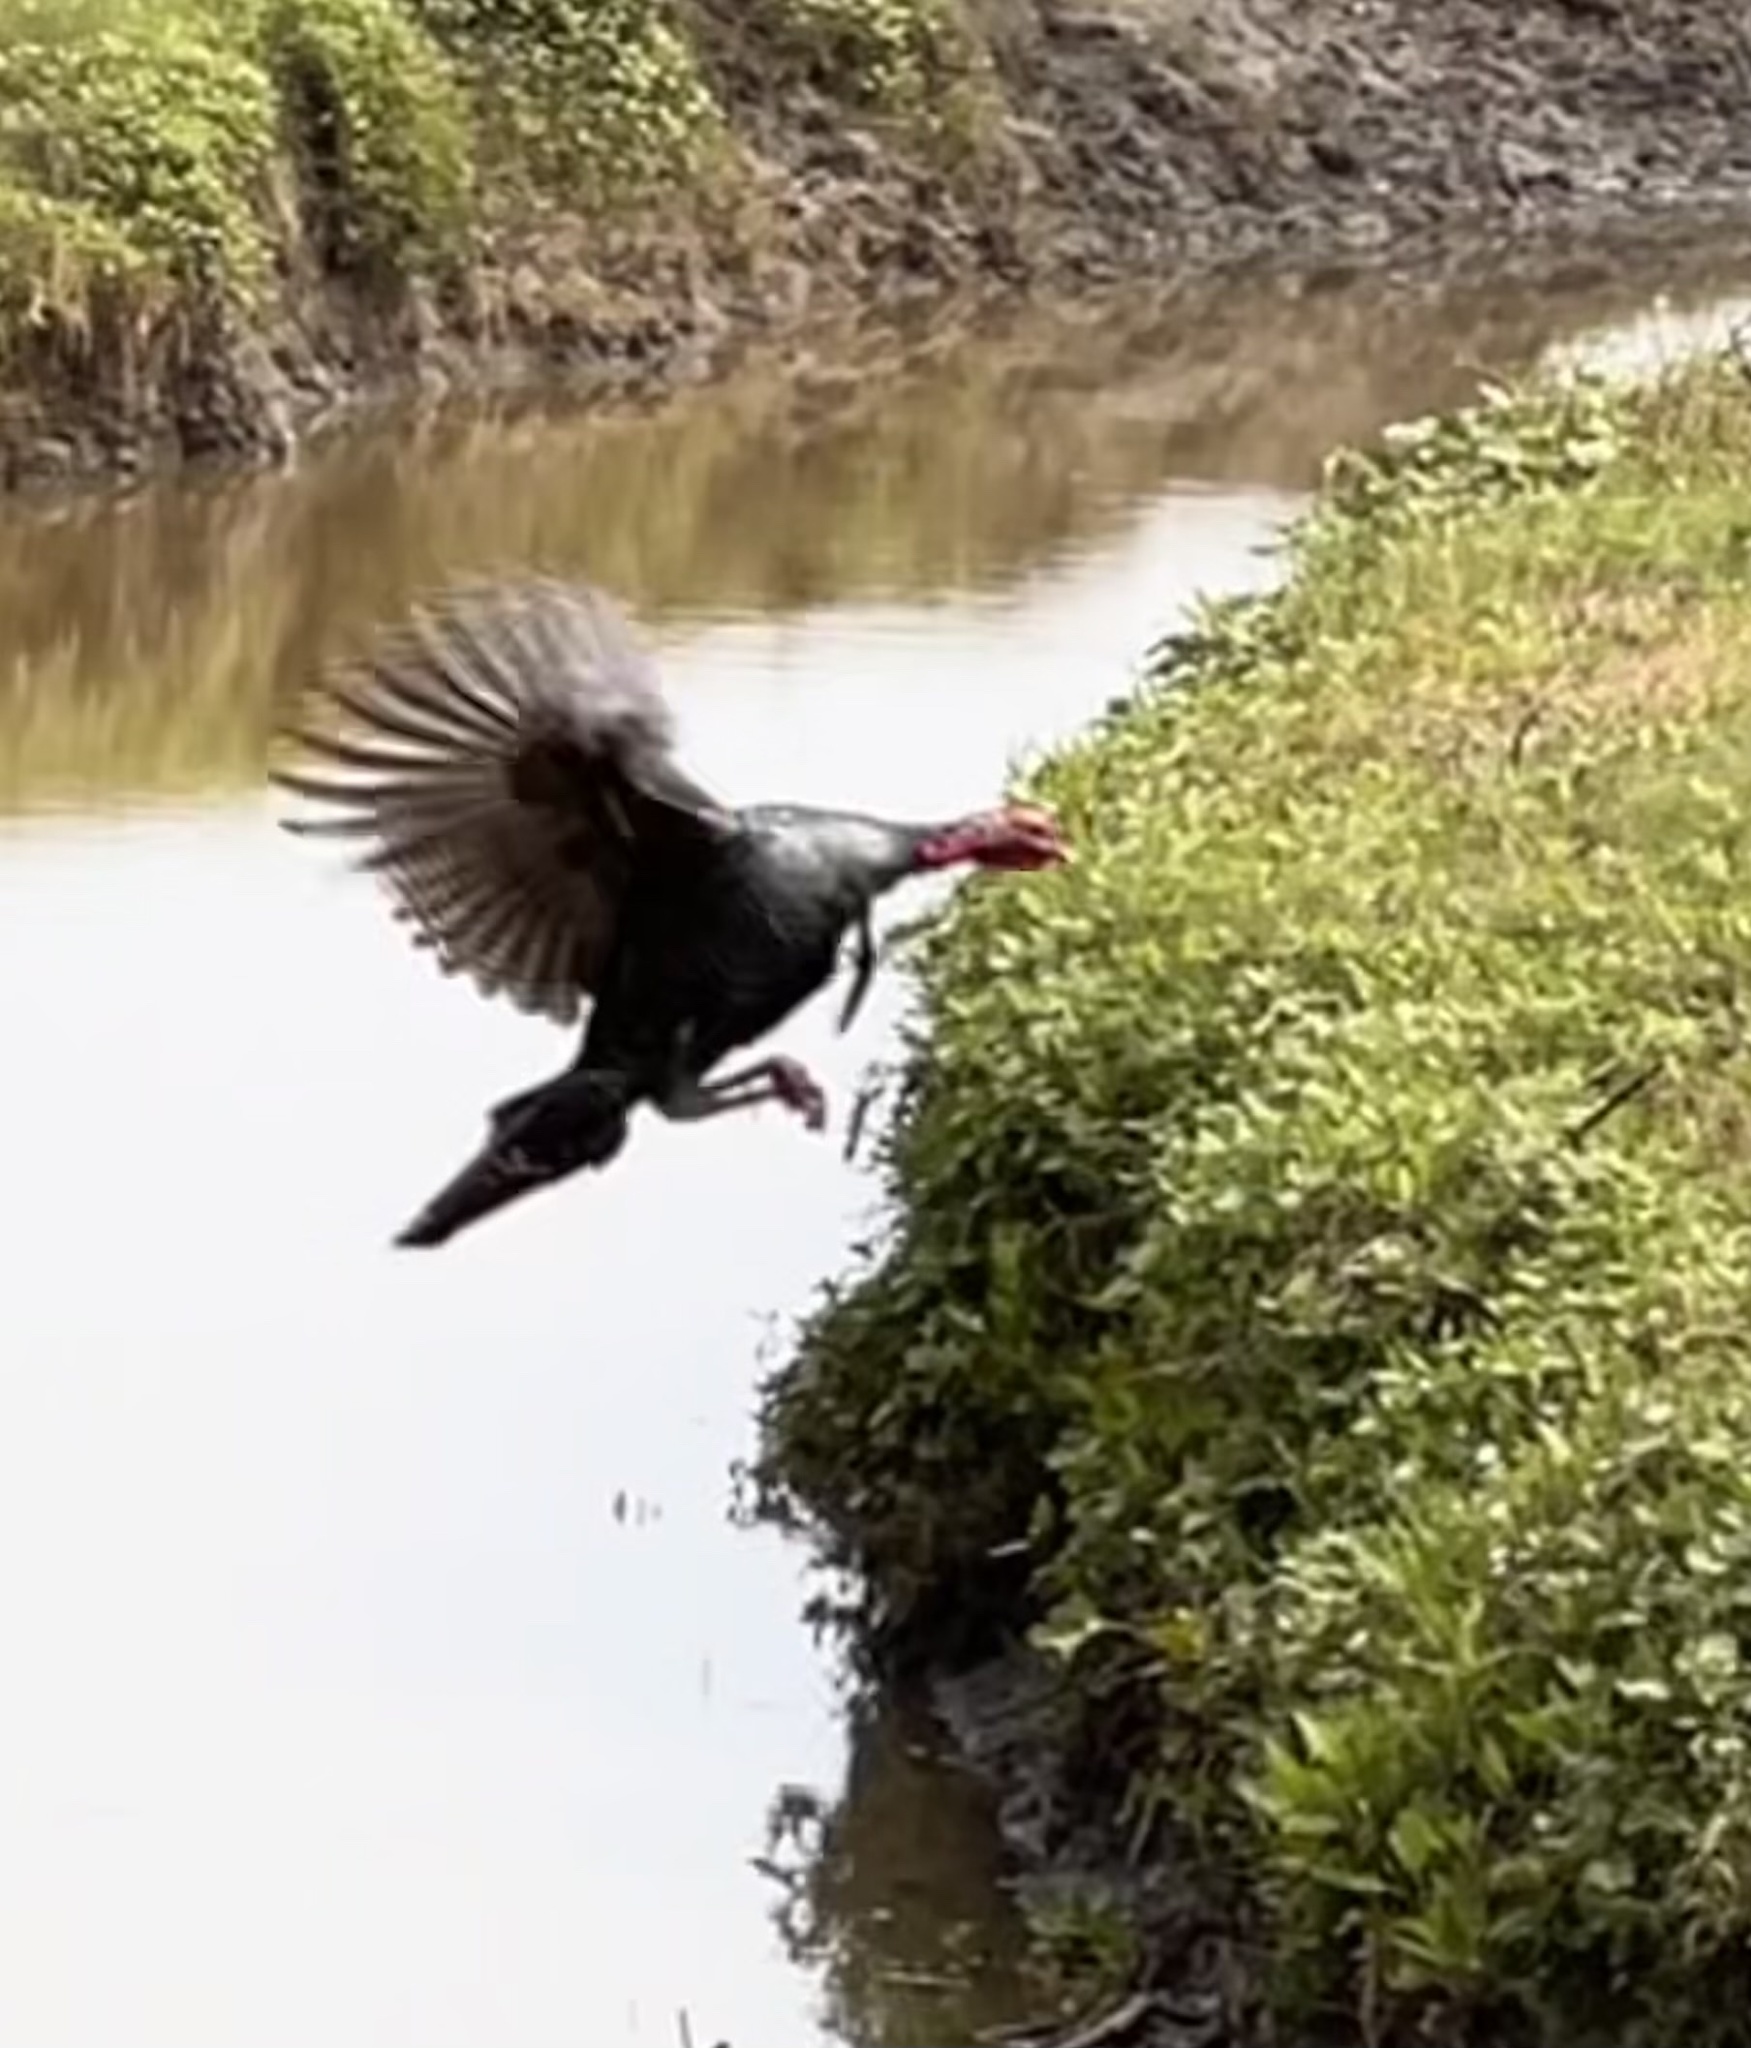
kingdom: Animalia
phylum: Chordata
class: Aves
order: Galliformes
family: Phasianidae
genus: Meleagris
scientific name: Meleagris gallopavo
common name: Wild turkey
